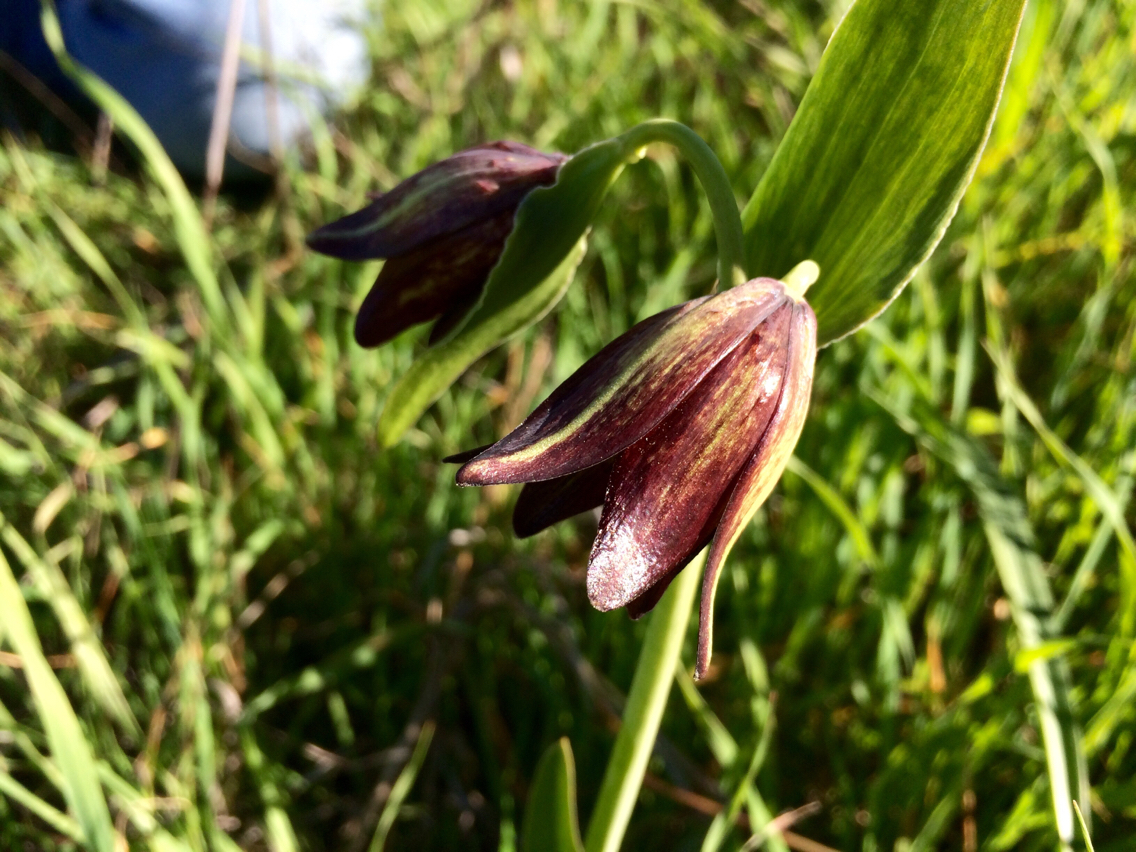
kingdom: Plantae
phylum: Tracheophyta
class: Liliopsida
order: Liliales
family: Liliaceae
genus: Fritillaria
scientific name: Fritillaria biflora
